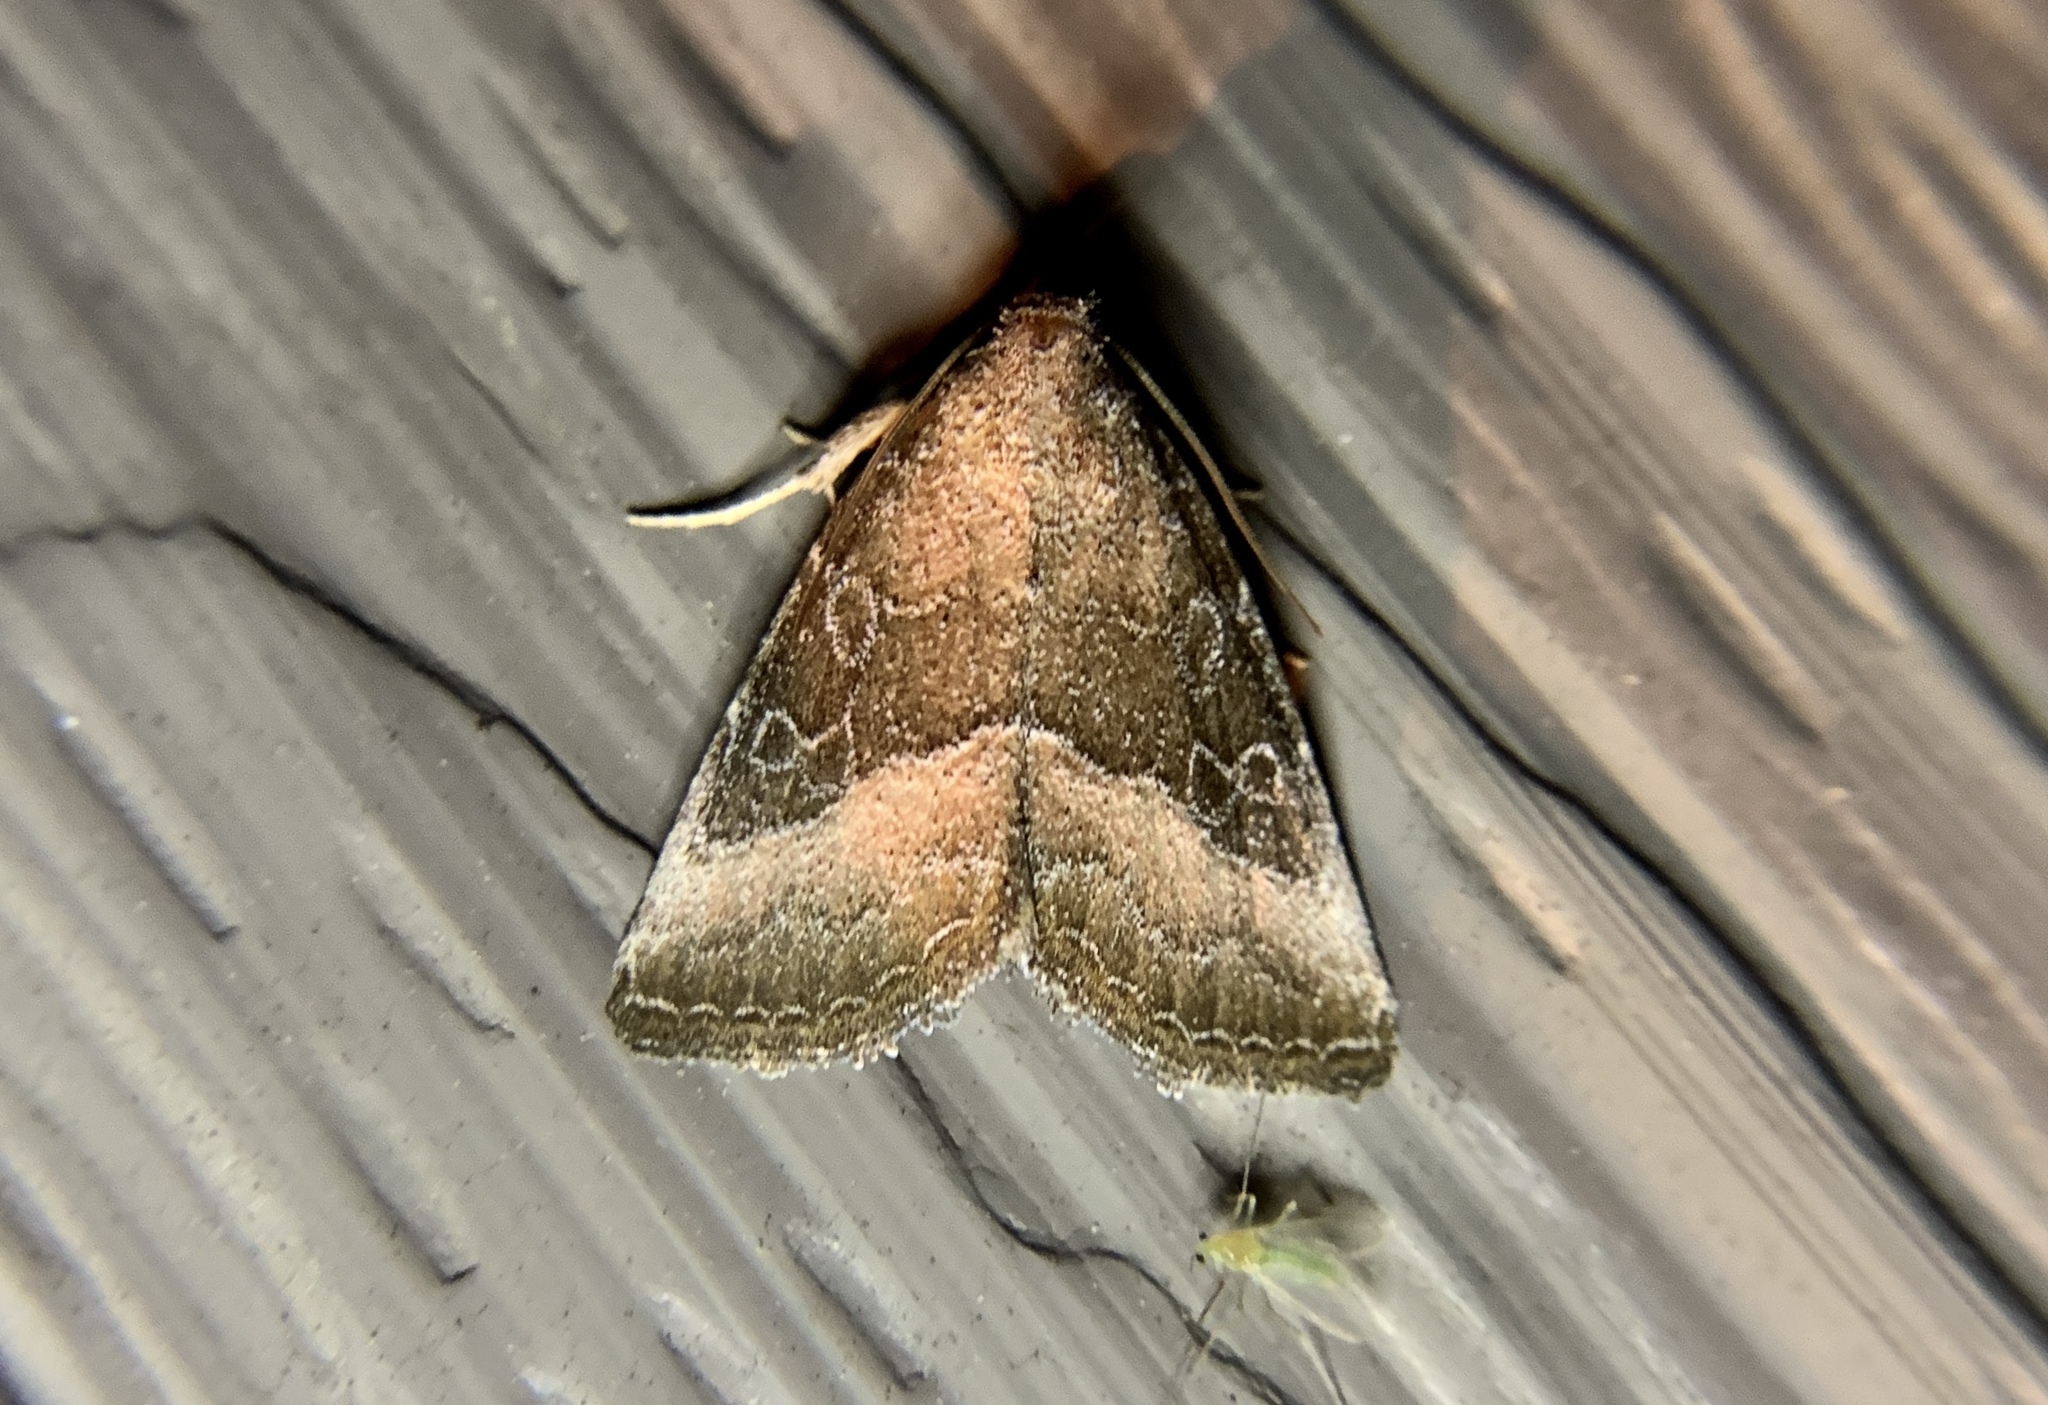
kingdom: Animalia
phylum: Arthropoda
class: Insecta
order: Lepidoptera
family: Noctuidae
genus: Ogdoconta
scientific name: Ogdoconta cinereola
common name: Common pinkband
